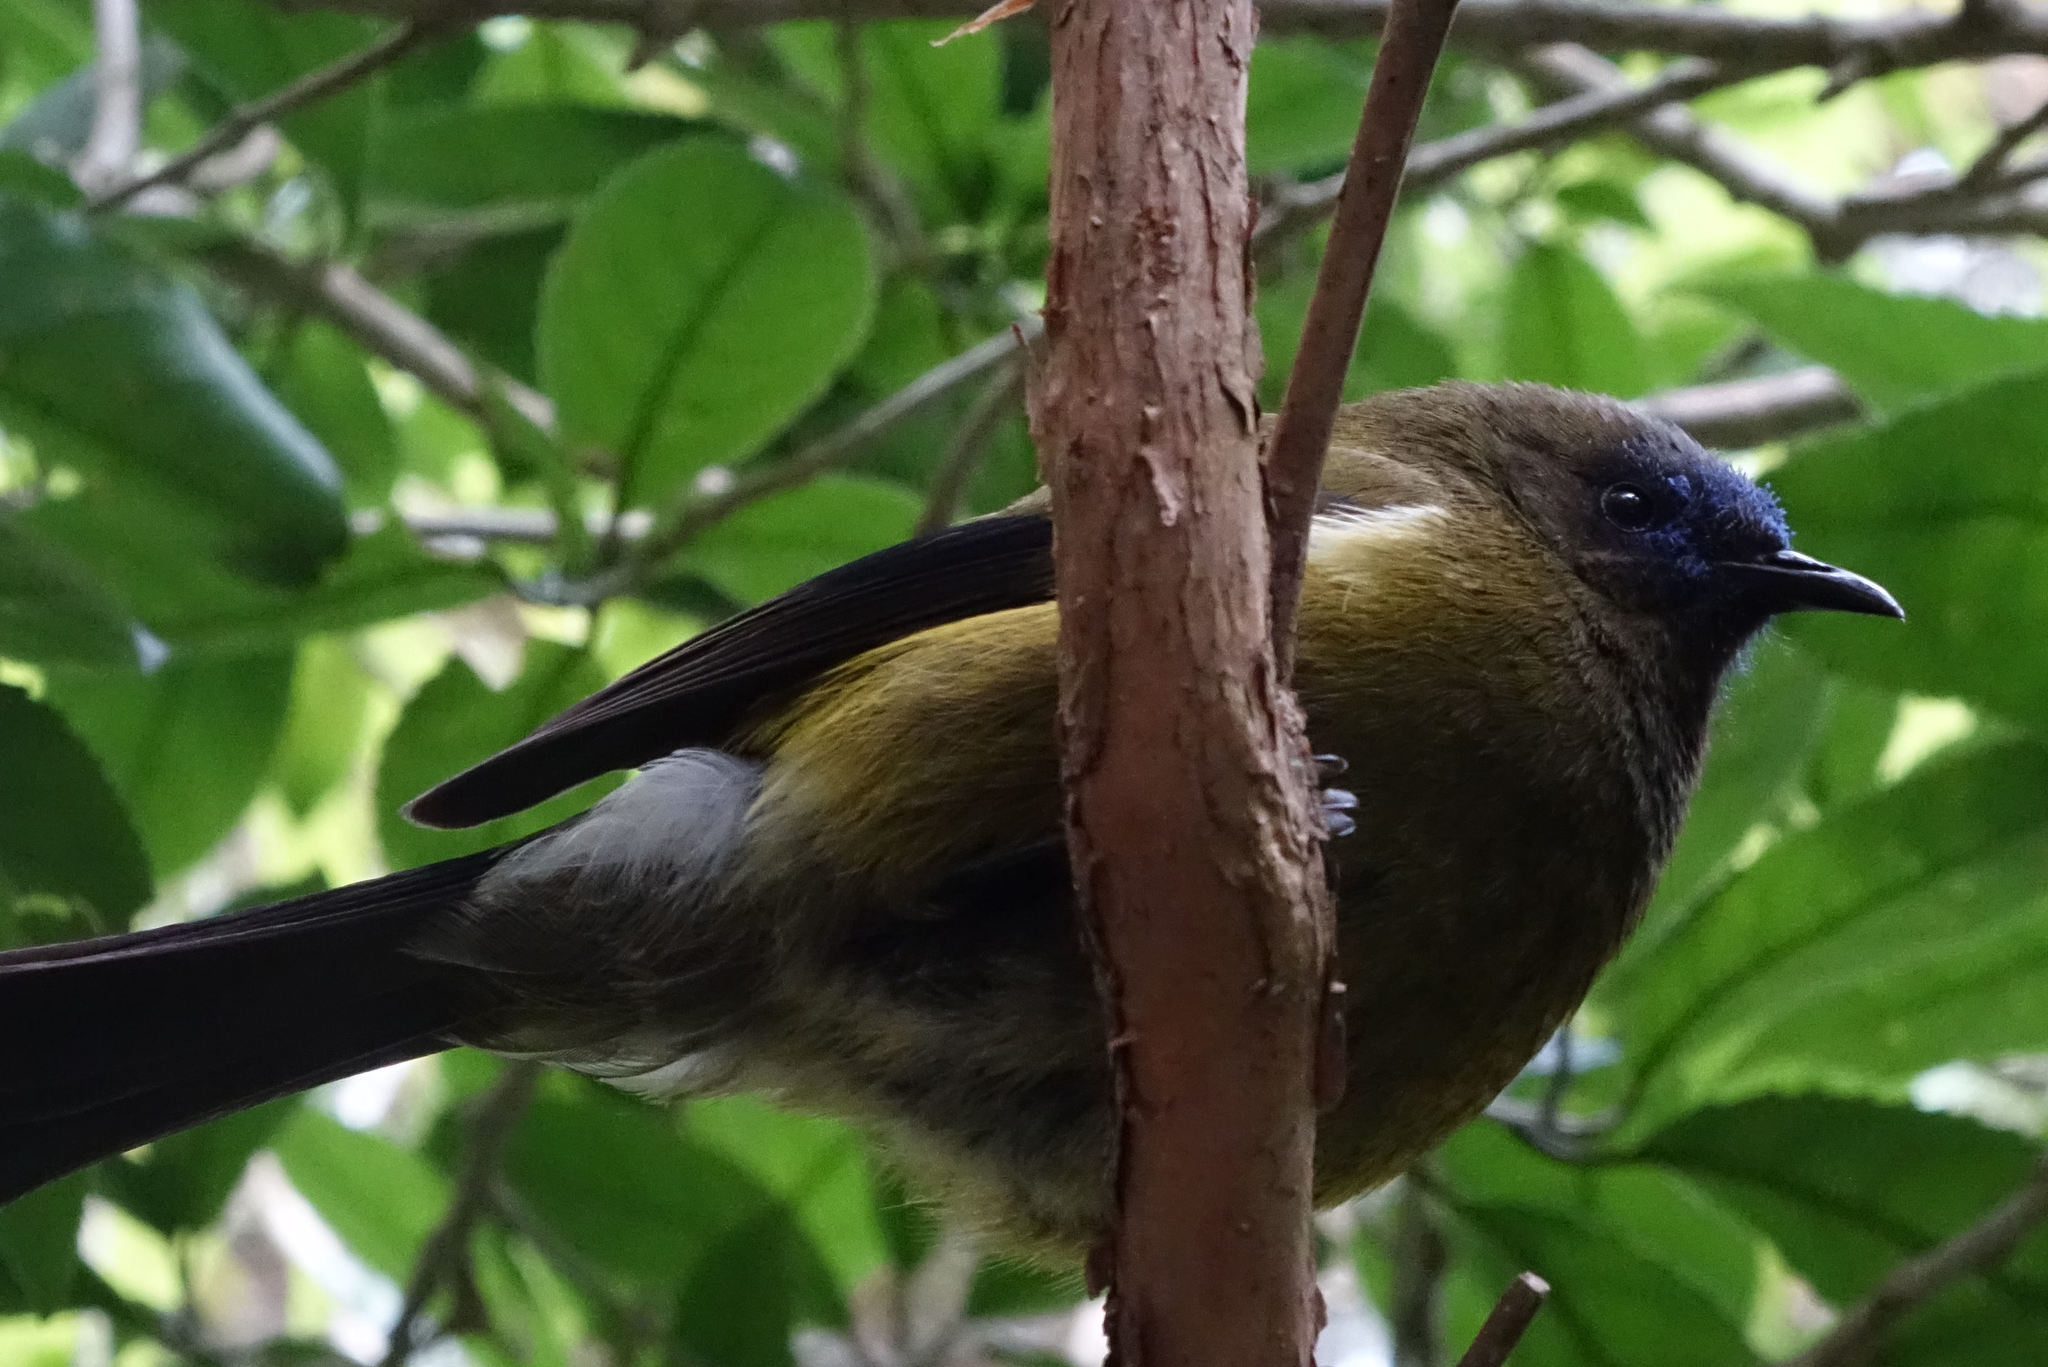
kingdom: Animalia
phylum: Chordata
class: Aves
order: Passeriformes
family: Meliphagidae
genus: Anthornis
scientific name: Anthornis melanura
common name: New zealand bellbird
